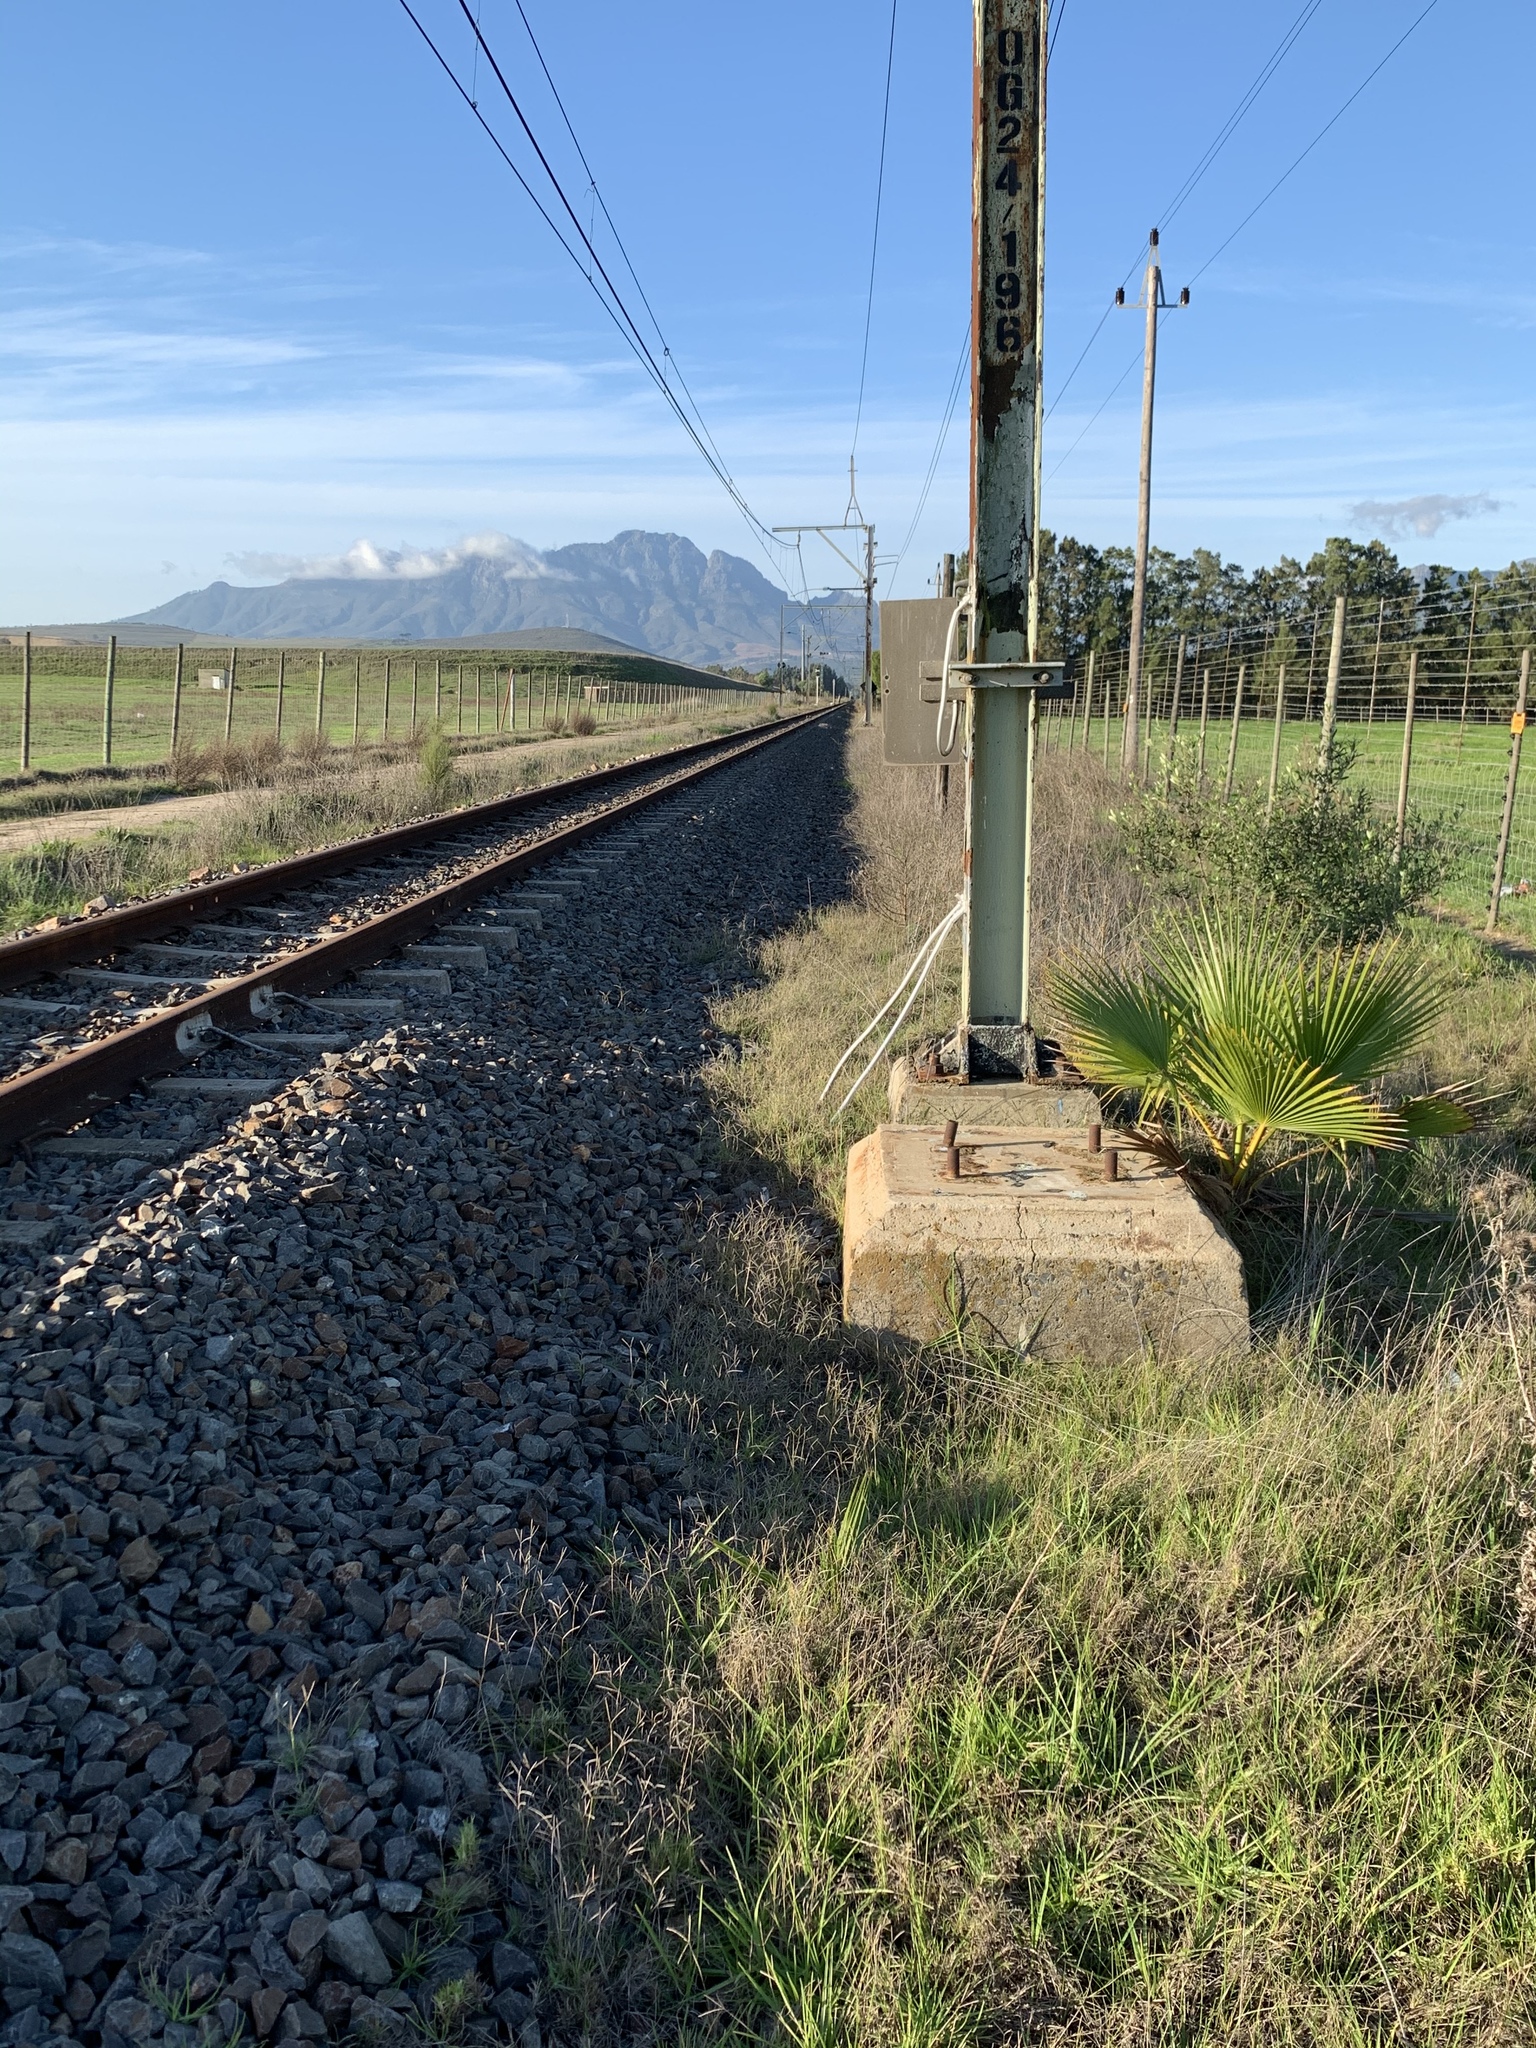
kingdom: Plantae
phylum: Tracheophyta
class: Liliopsida
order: Arecales
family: Arecaceae
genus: Washingtonia
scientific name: Washingtonia robusta
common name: Mexican fan palm
